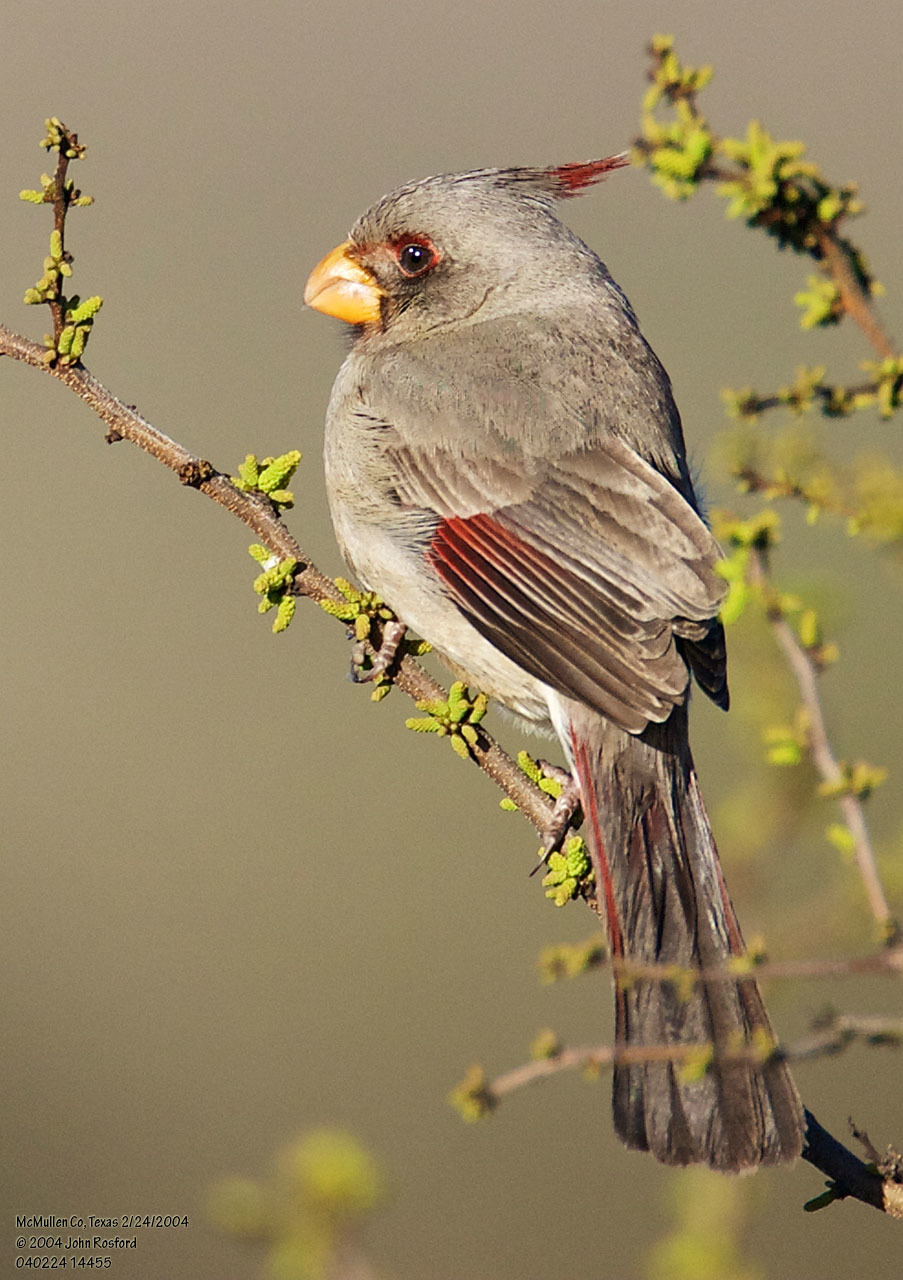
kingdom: Animalia
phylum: Chordata
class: Aves
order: Passeriformes
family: Cardinalidae
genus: Cardinalis
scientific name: Cardinalis sinuatus
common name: Pyrrhuloxia
